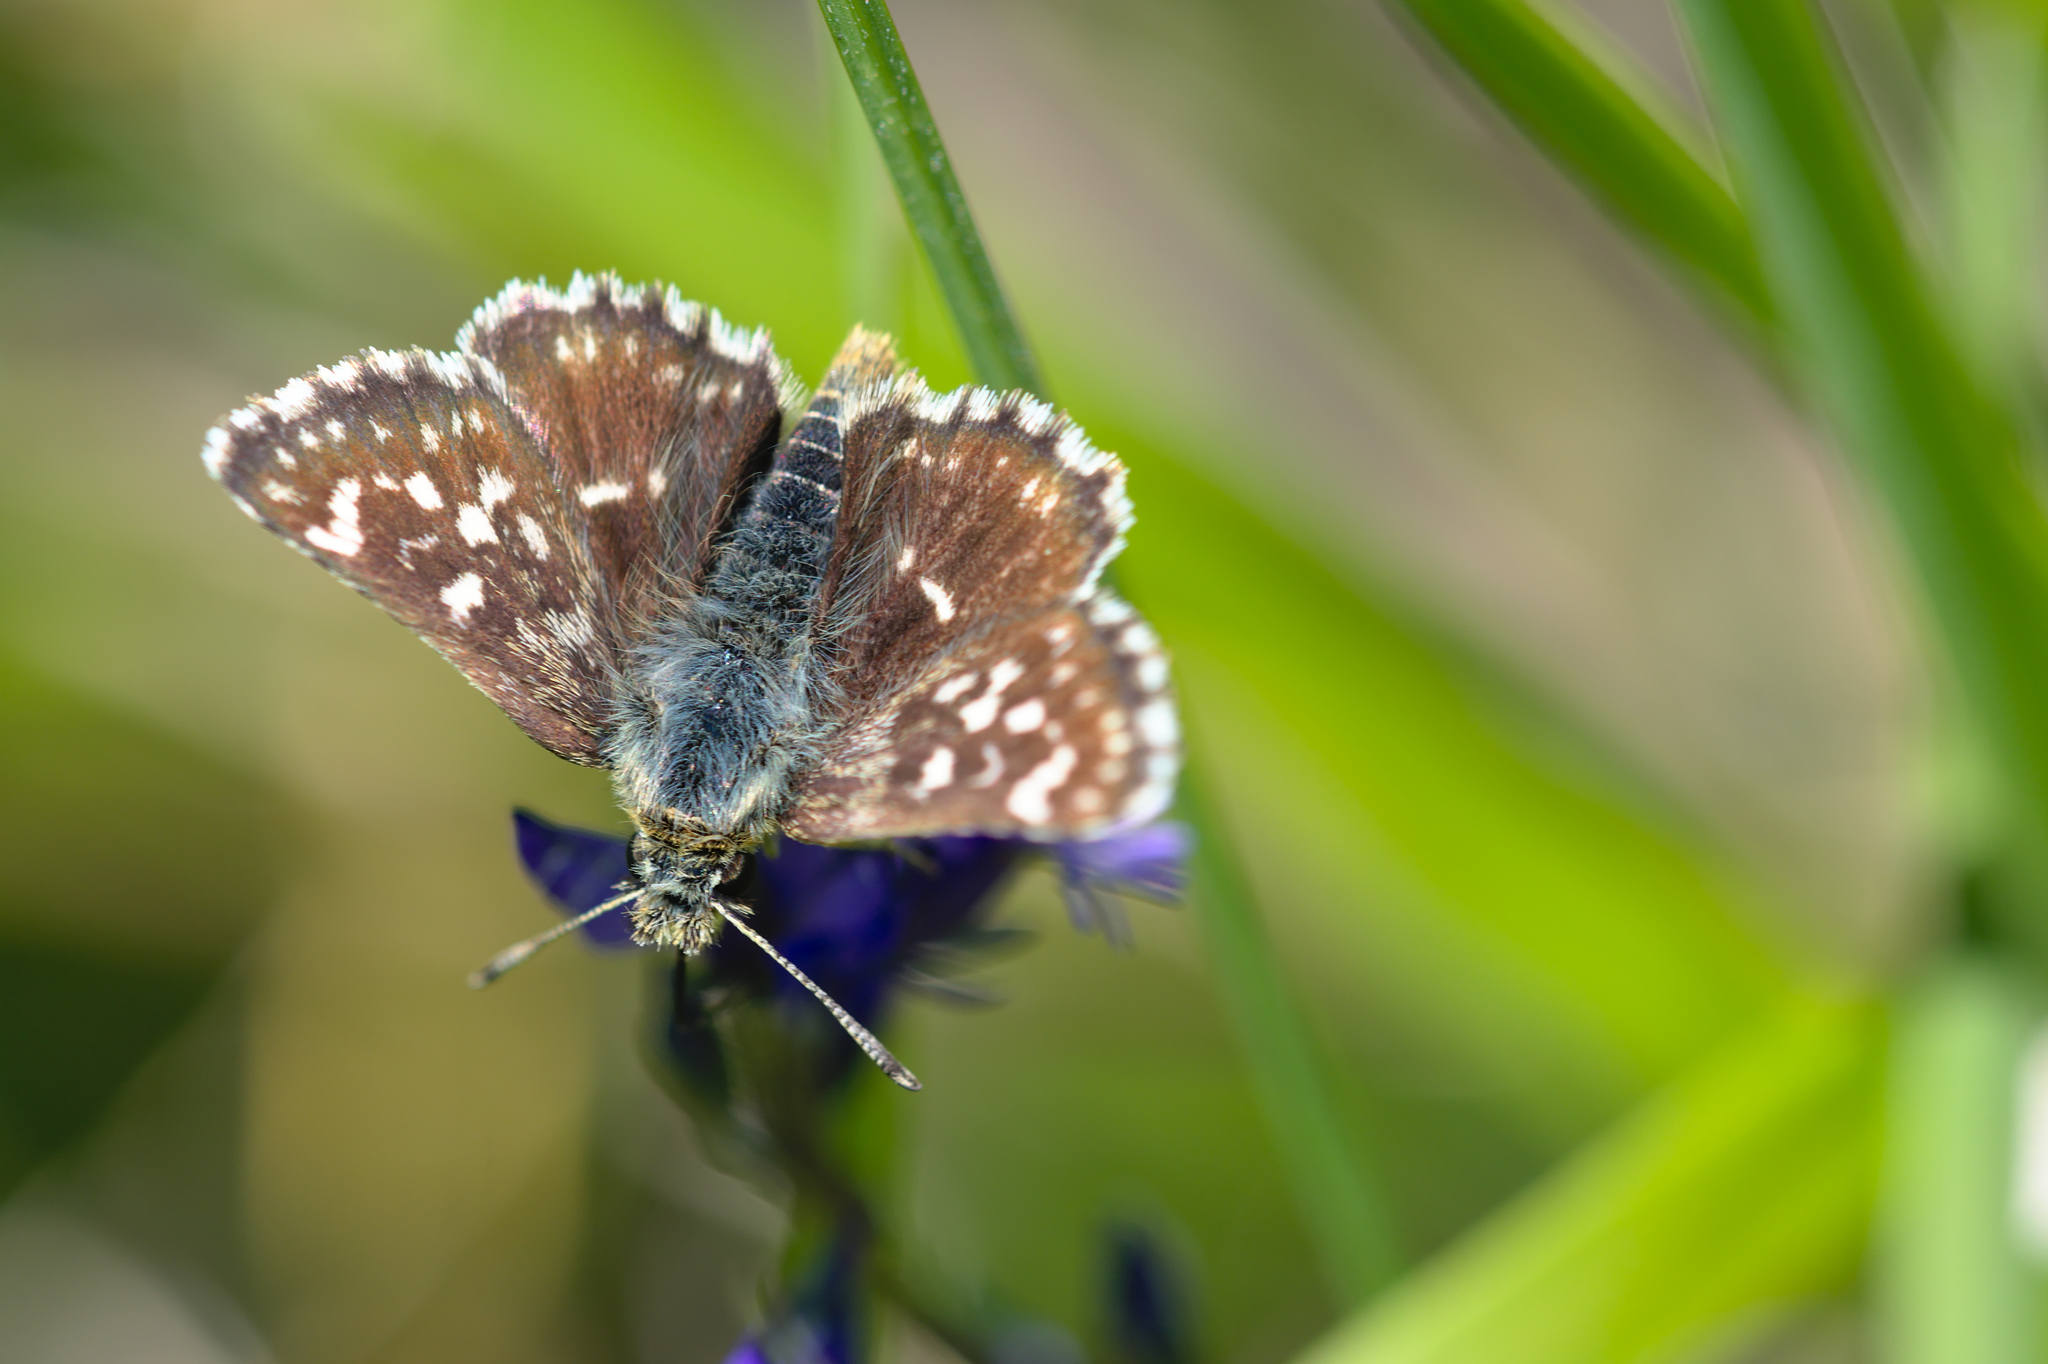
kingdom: Animalia
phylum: Arthropoda
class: Insecta
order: Lepidoptera
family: Hesperiidae
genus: Spialia
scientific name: Spialia sertorius
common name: Red underwing skipper
